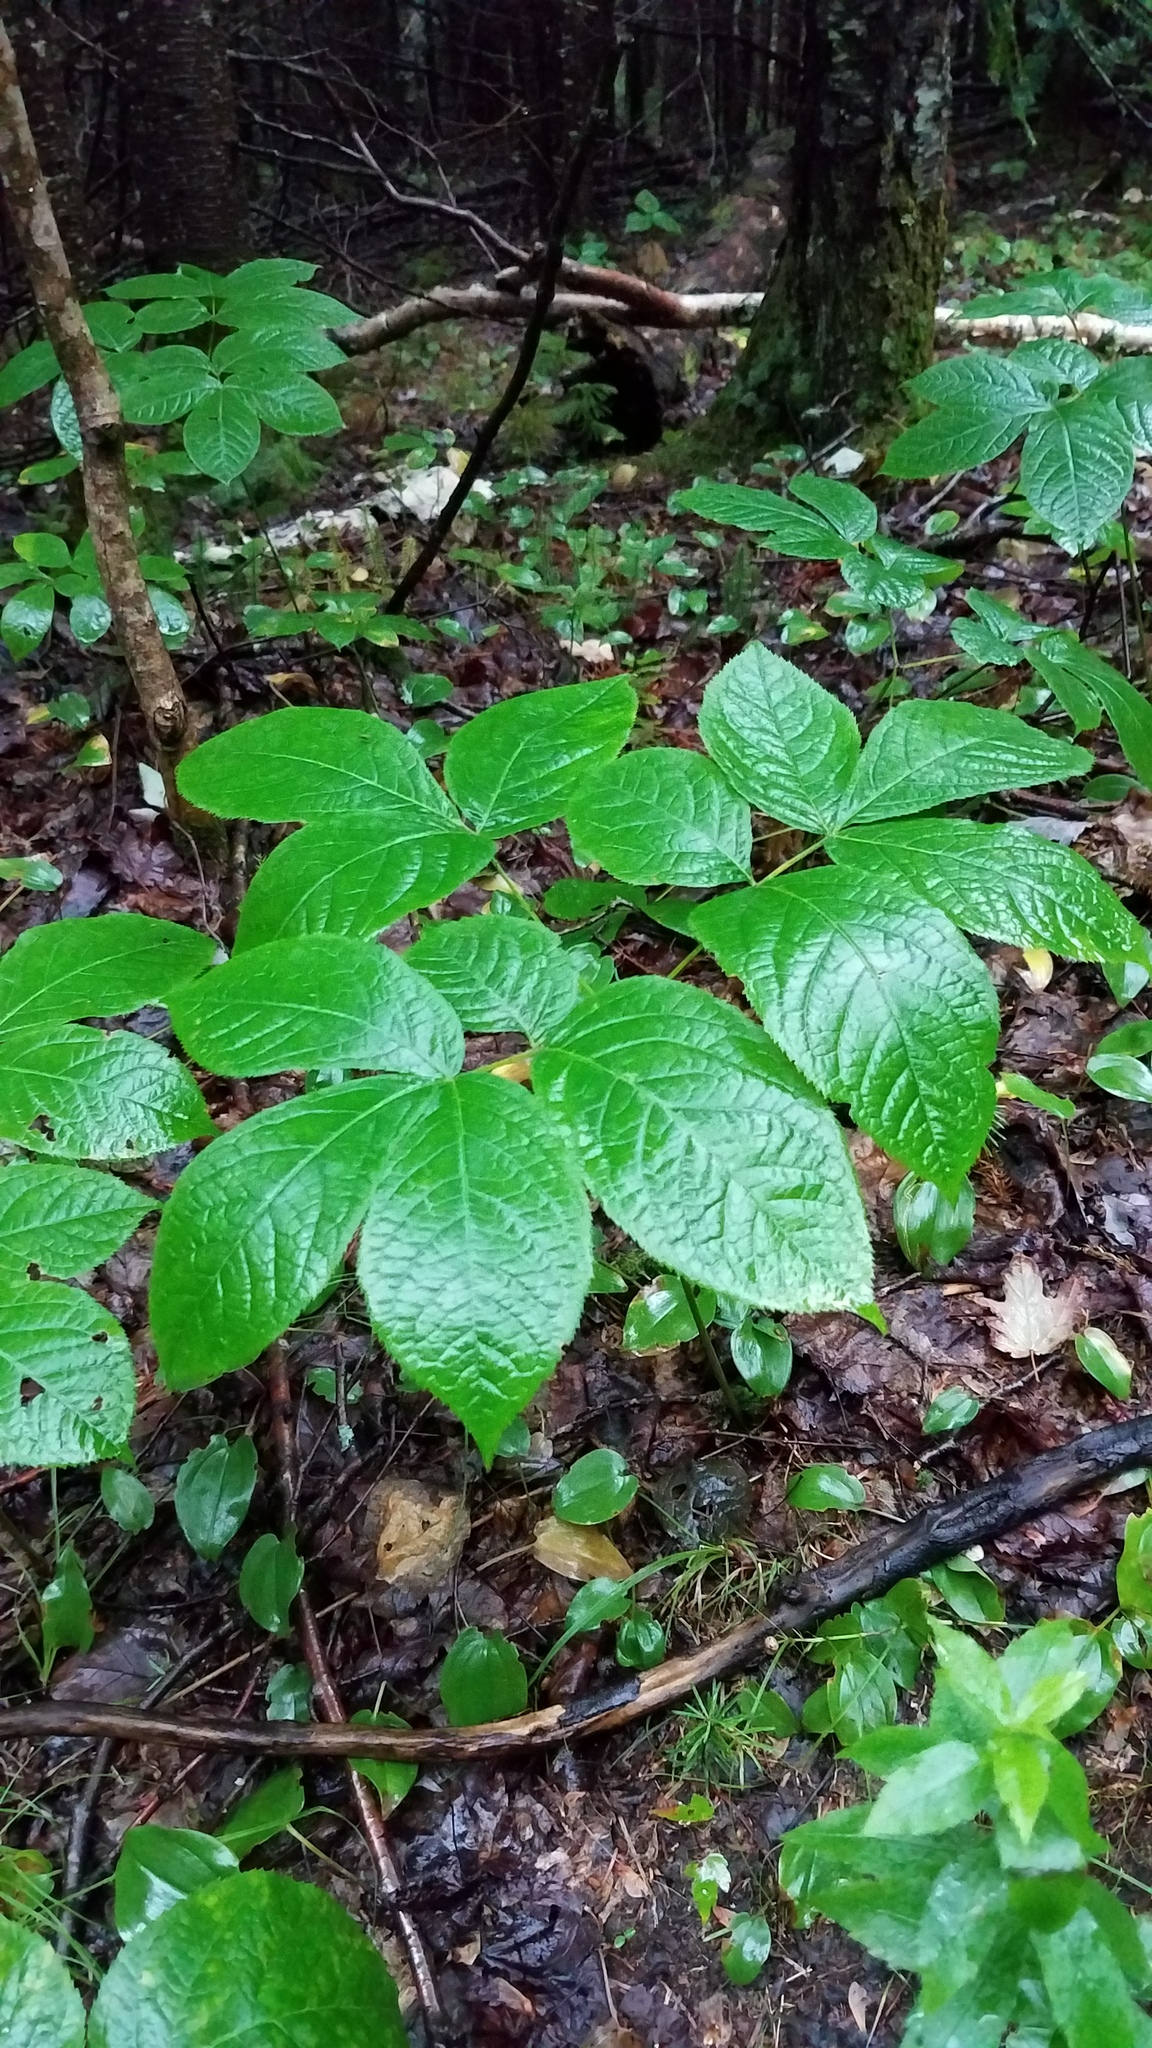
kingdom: Plantae
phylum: Tracheophyta
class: Magnoliopsida
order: Apiales
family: Araliaceae
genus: Aralia
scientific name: Aralia nudicaulis
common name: Wild sarsaparilla
